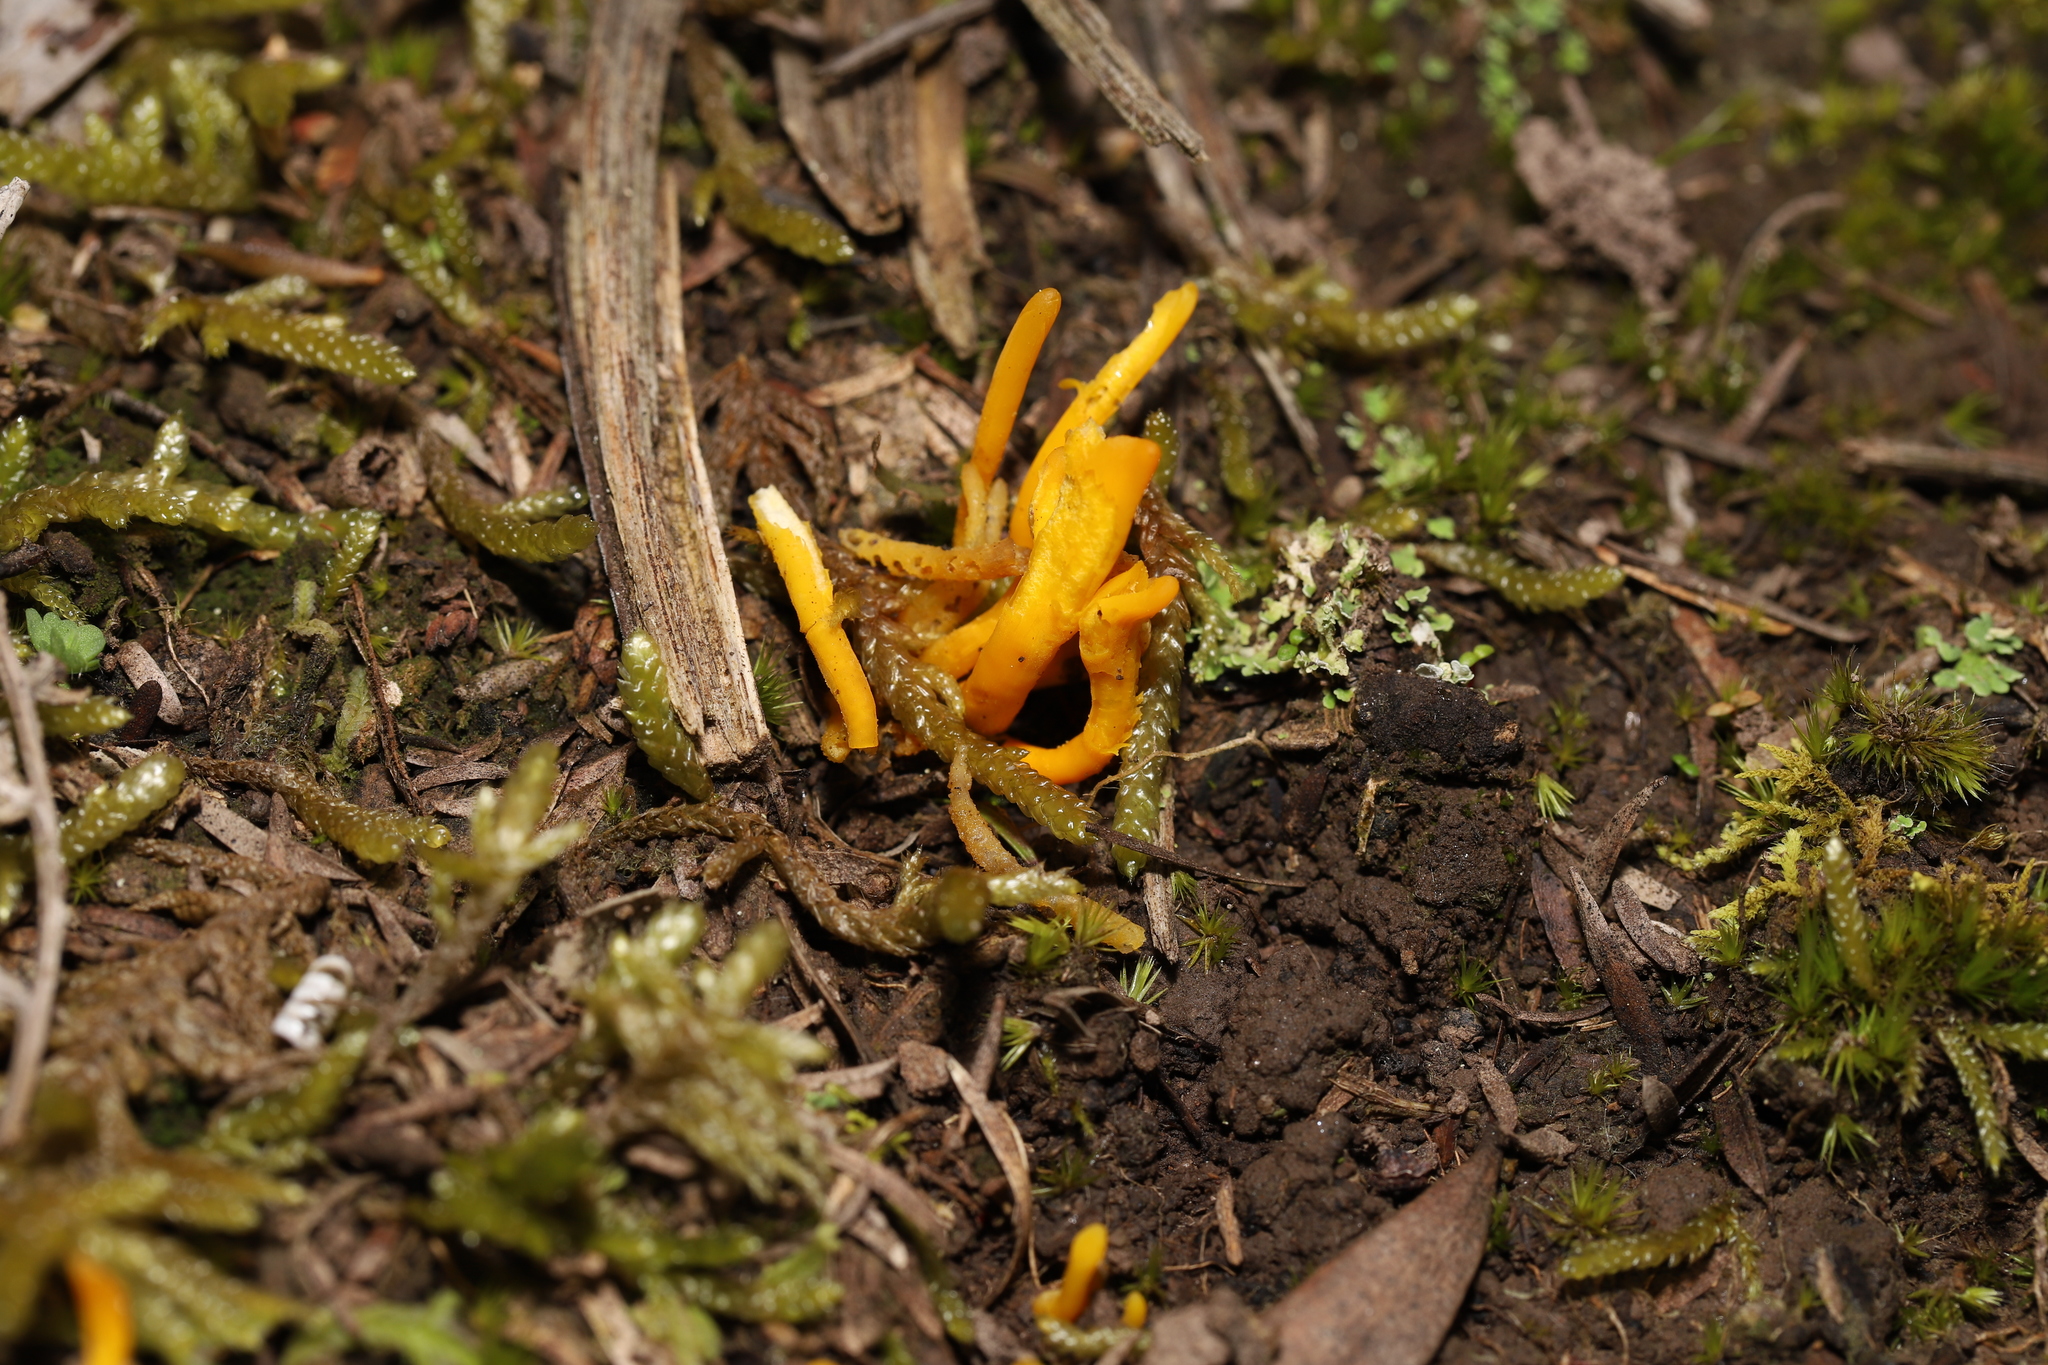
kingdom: Fungi
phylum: Basidiomycota
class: Agaricomycetes
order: Agaricales
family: Clavariaceae
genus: Clavulinopsis
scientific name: Clavulinopsis amoena
